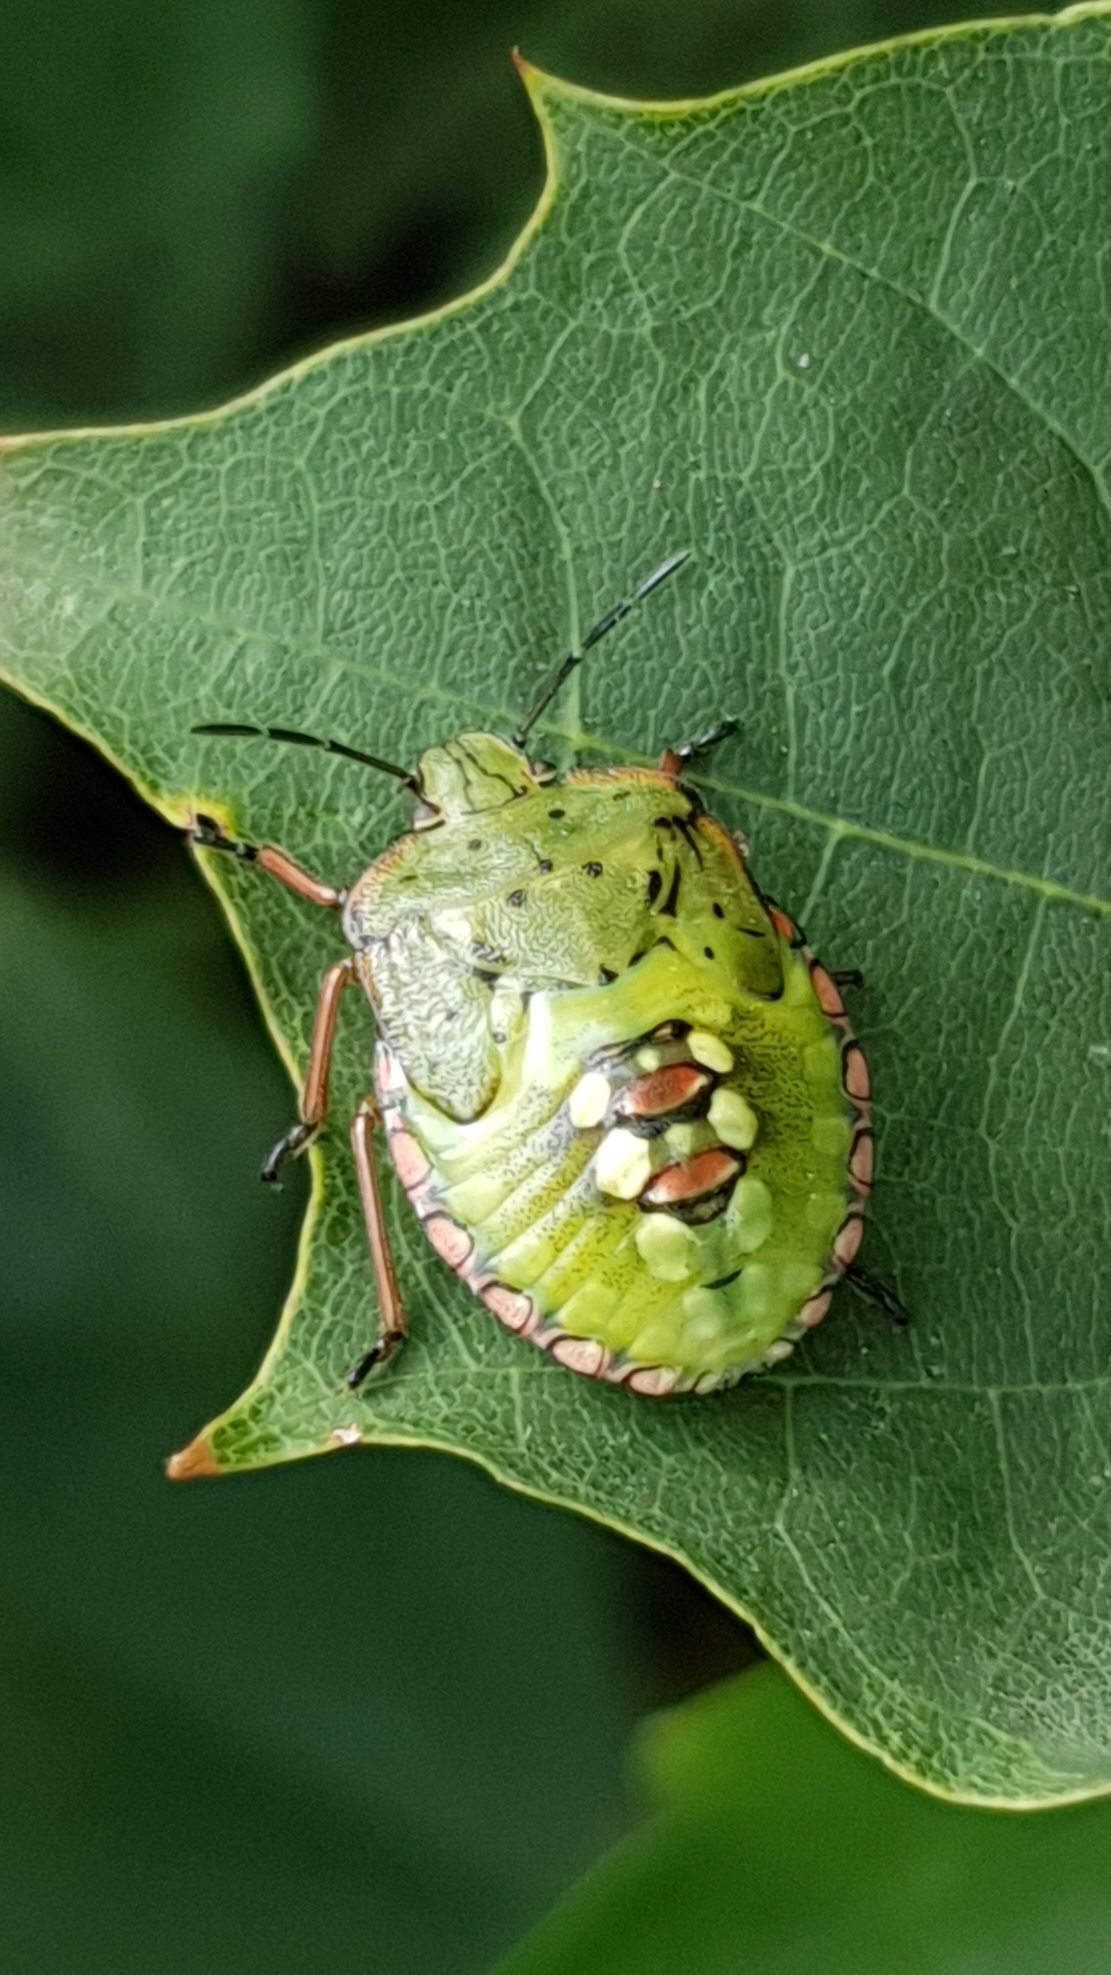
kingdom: Animalia
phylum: Arthropoda
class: Insecta
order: Hemiptera
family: Pentatomidae
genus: Nezara
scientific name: Nezara viridula
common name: Southern green stink bug
